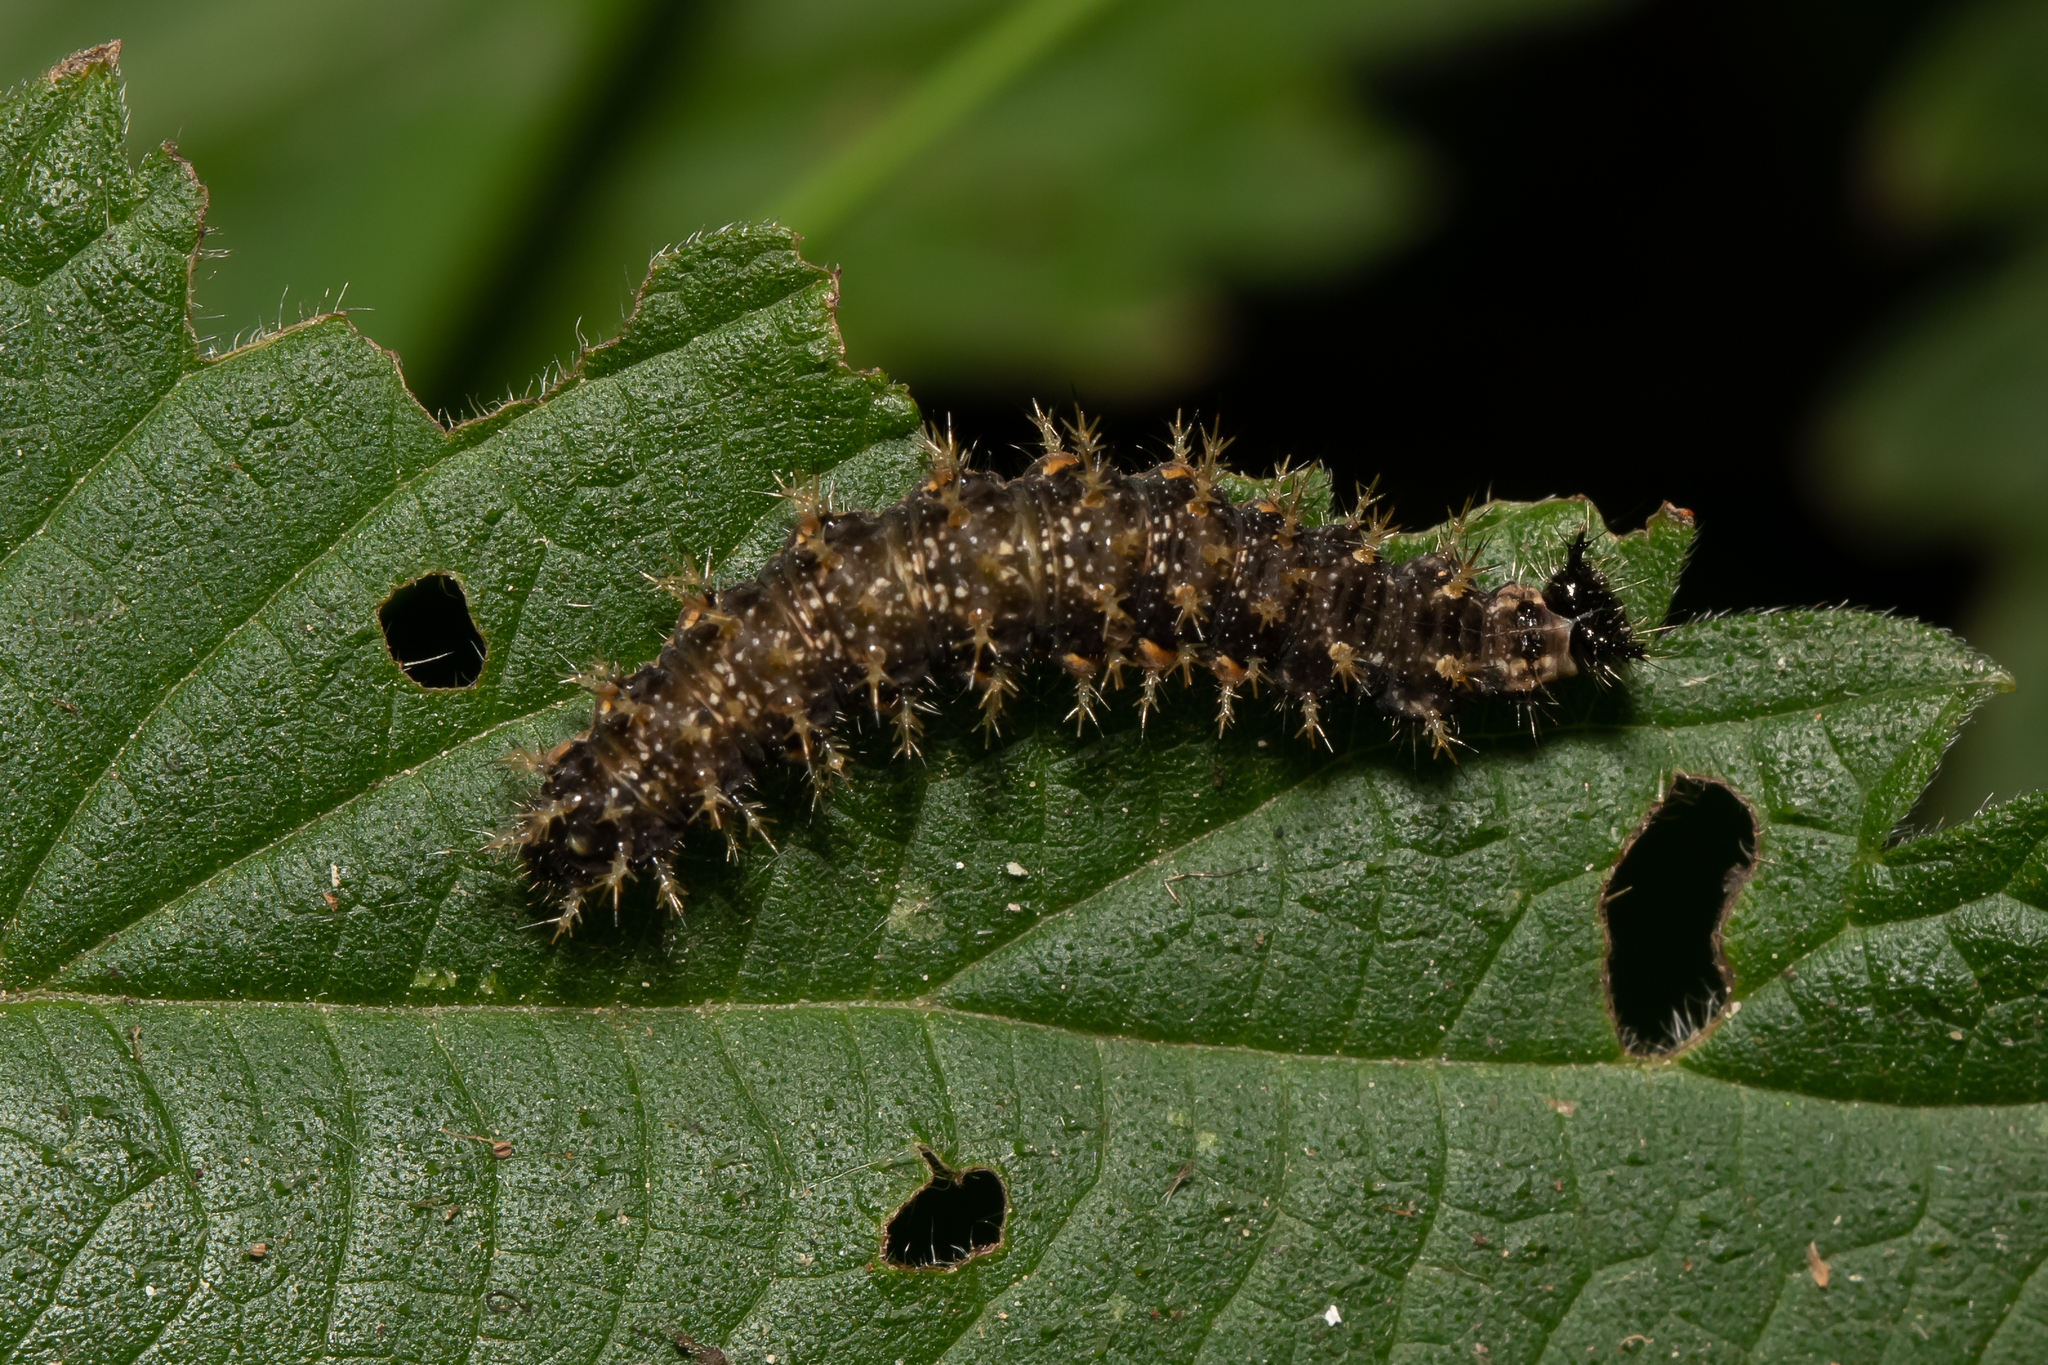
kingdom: Animalia
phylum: Arthropoda
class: Insecta
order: Lepidoptera
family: Nymphalidae
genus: Vanessa
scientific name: Vanessa atalanta
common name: Red admiral
